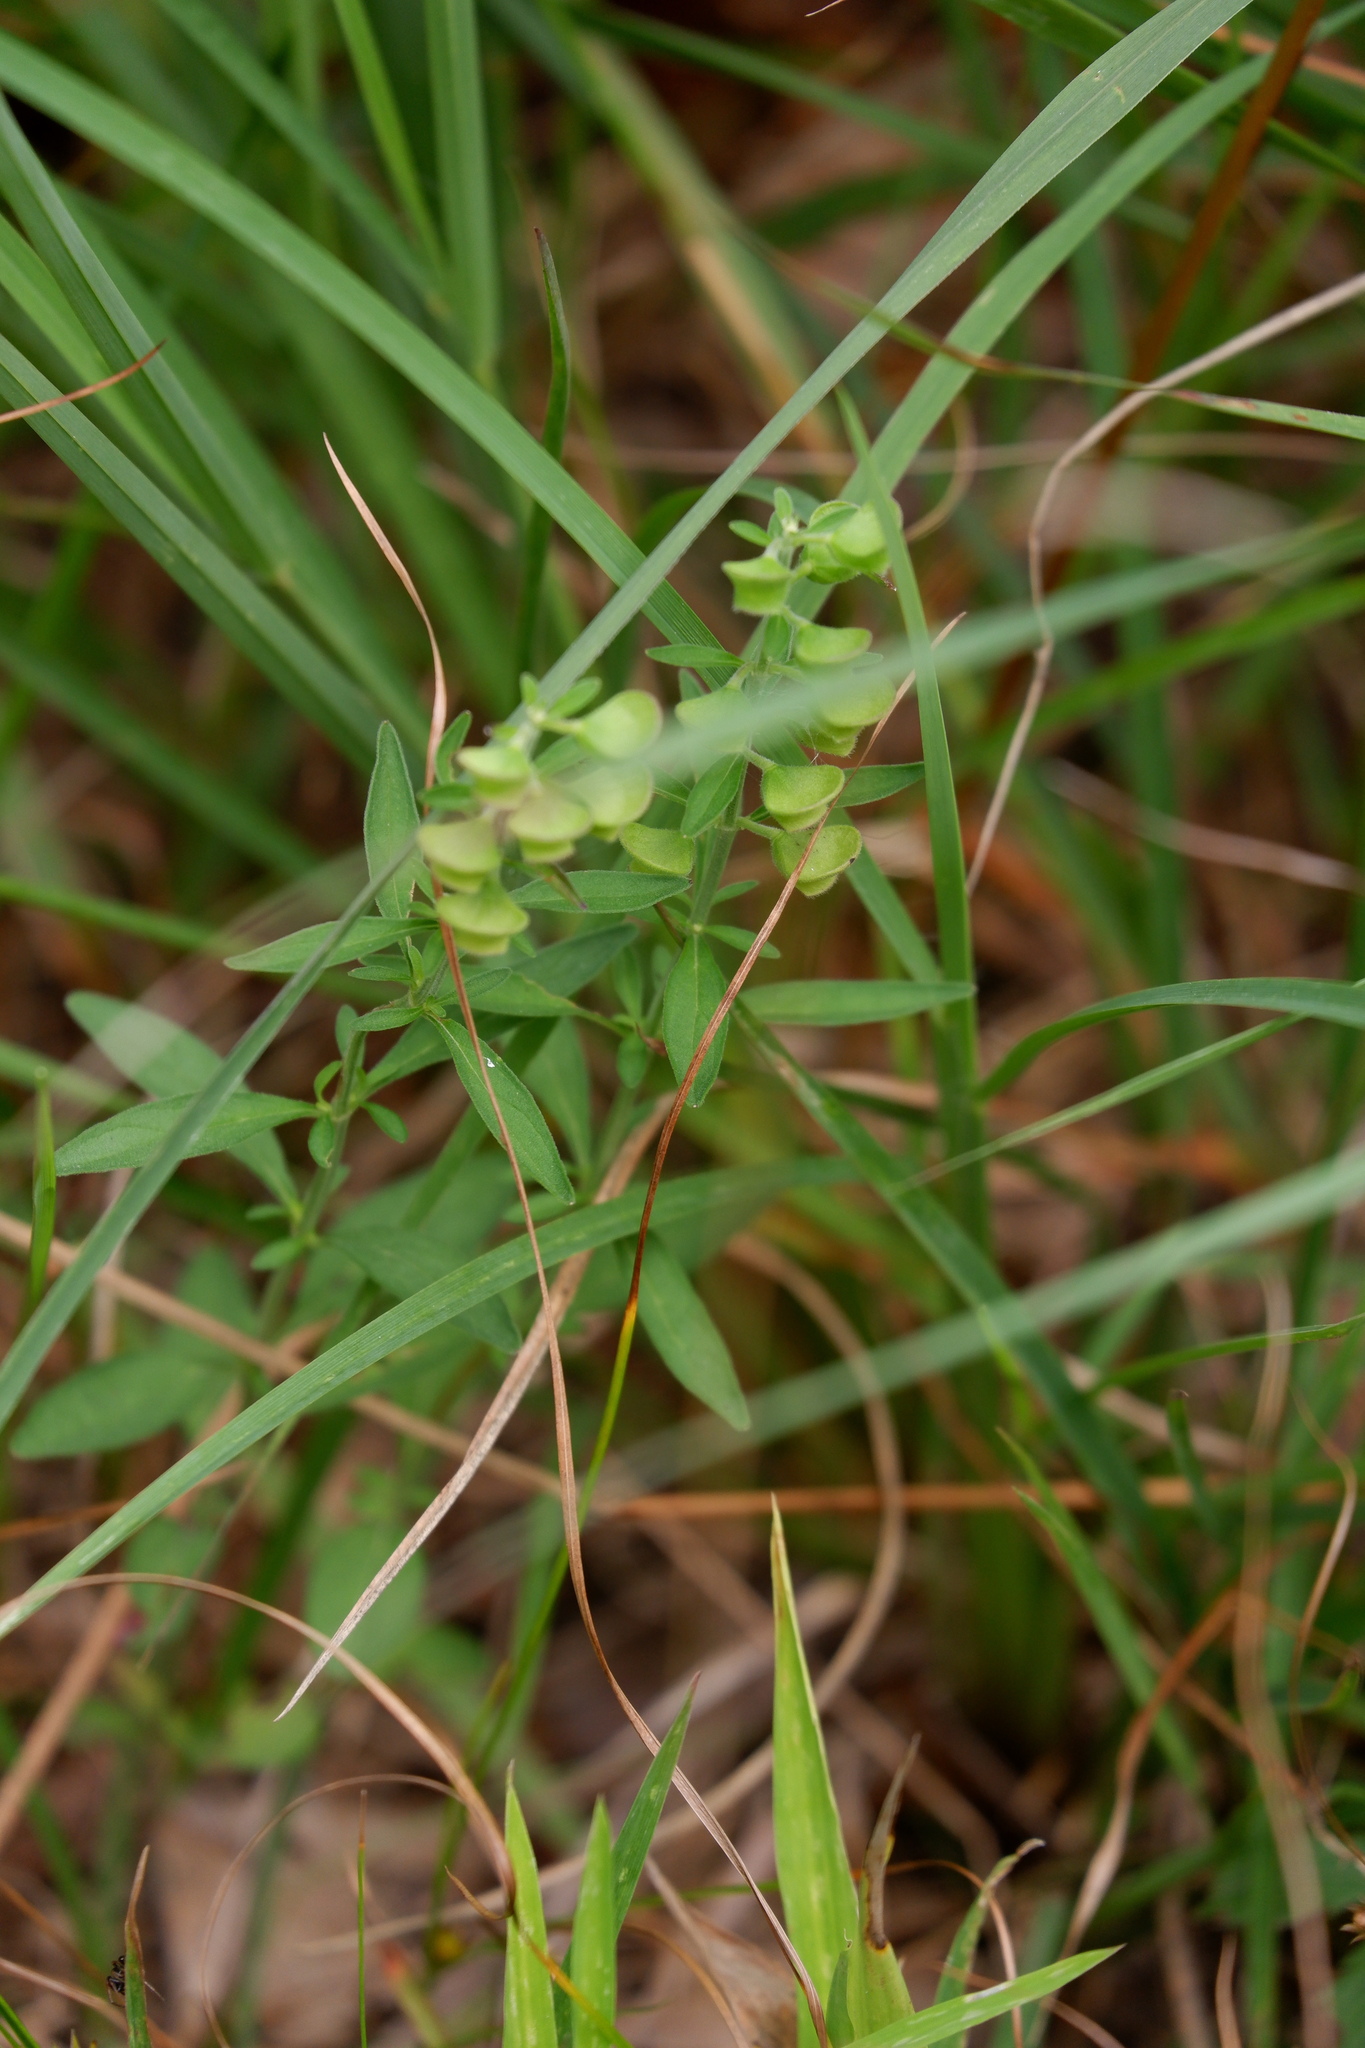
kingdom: Plantae
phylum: Tracheophyta
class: Magnoliopsida
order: Lamiales
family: Lamiaceae
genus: Scutellaria
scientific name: Scutellaria integrifolia
